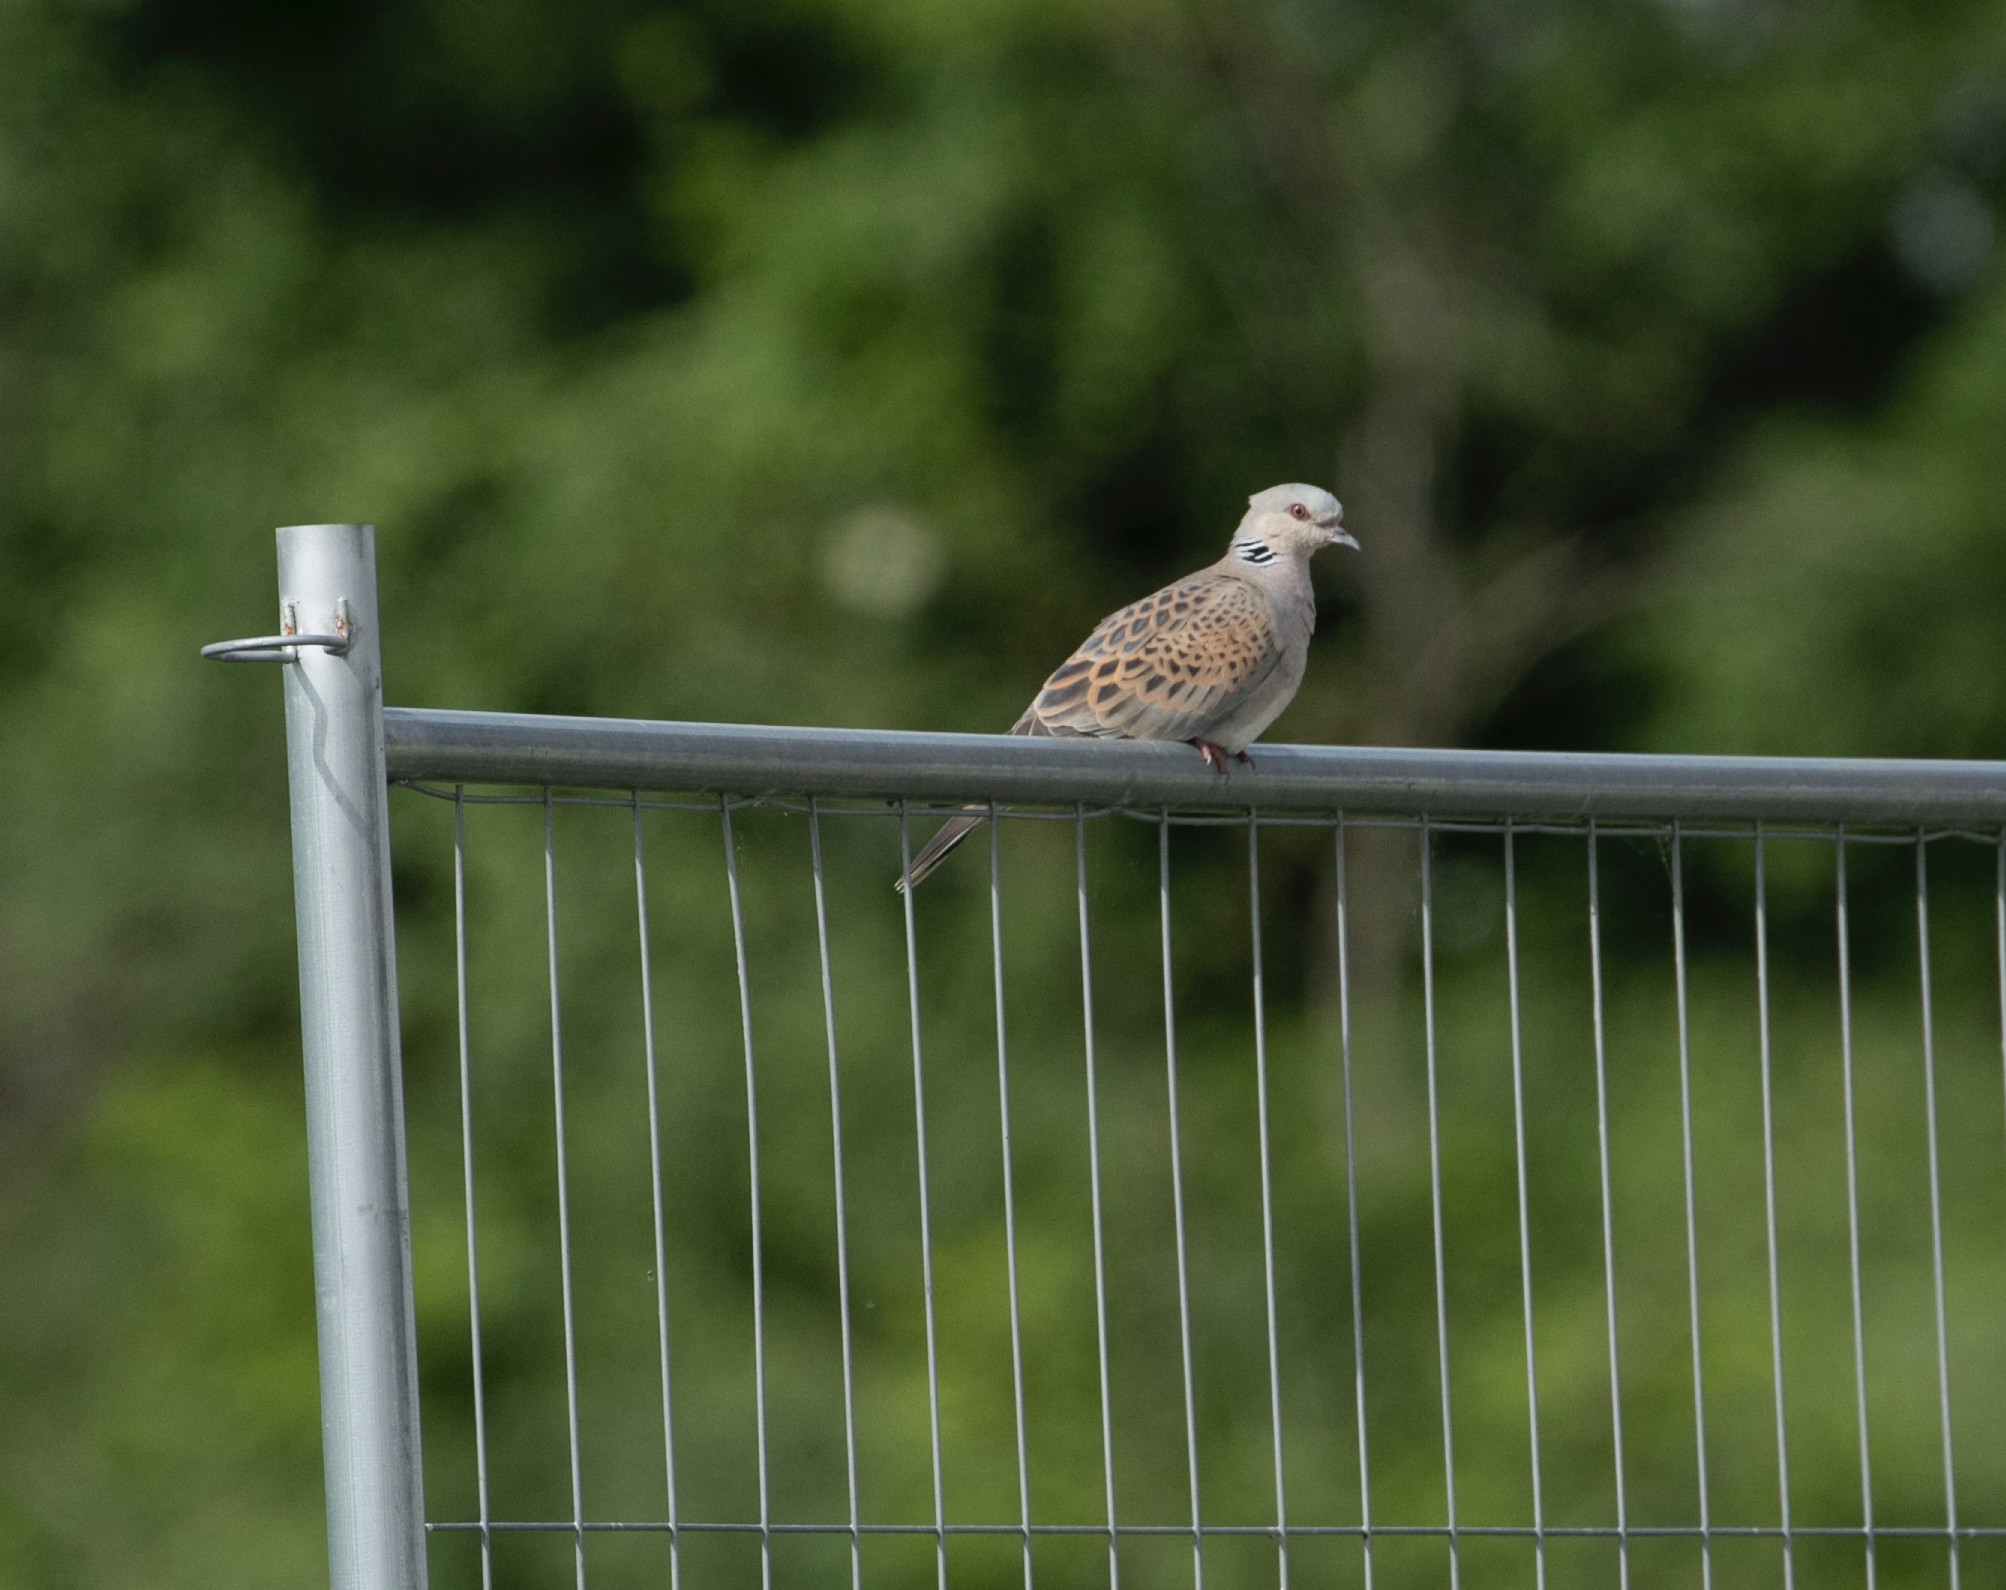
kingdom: Animalia
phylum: Chordata
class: Aves
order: Columbiformes
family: Columbidae
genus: Streptopelia
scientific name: Streptopelia turtur
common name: European turtle dove
